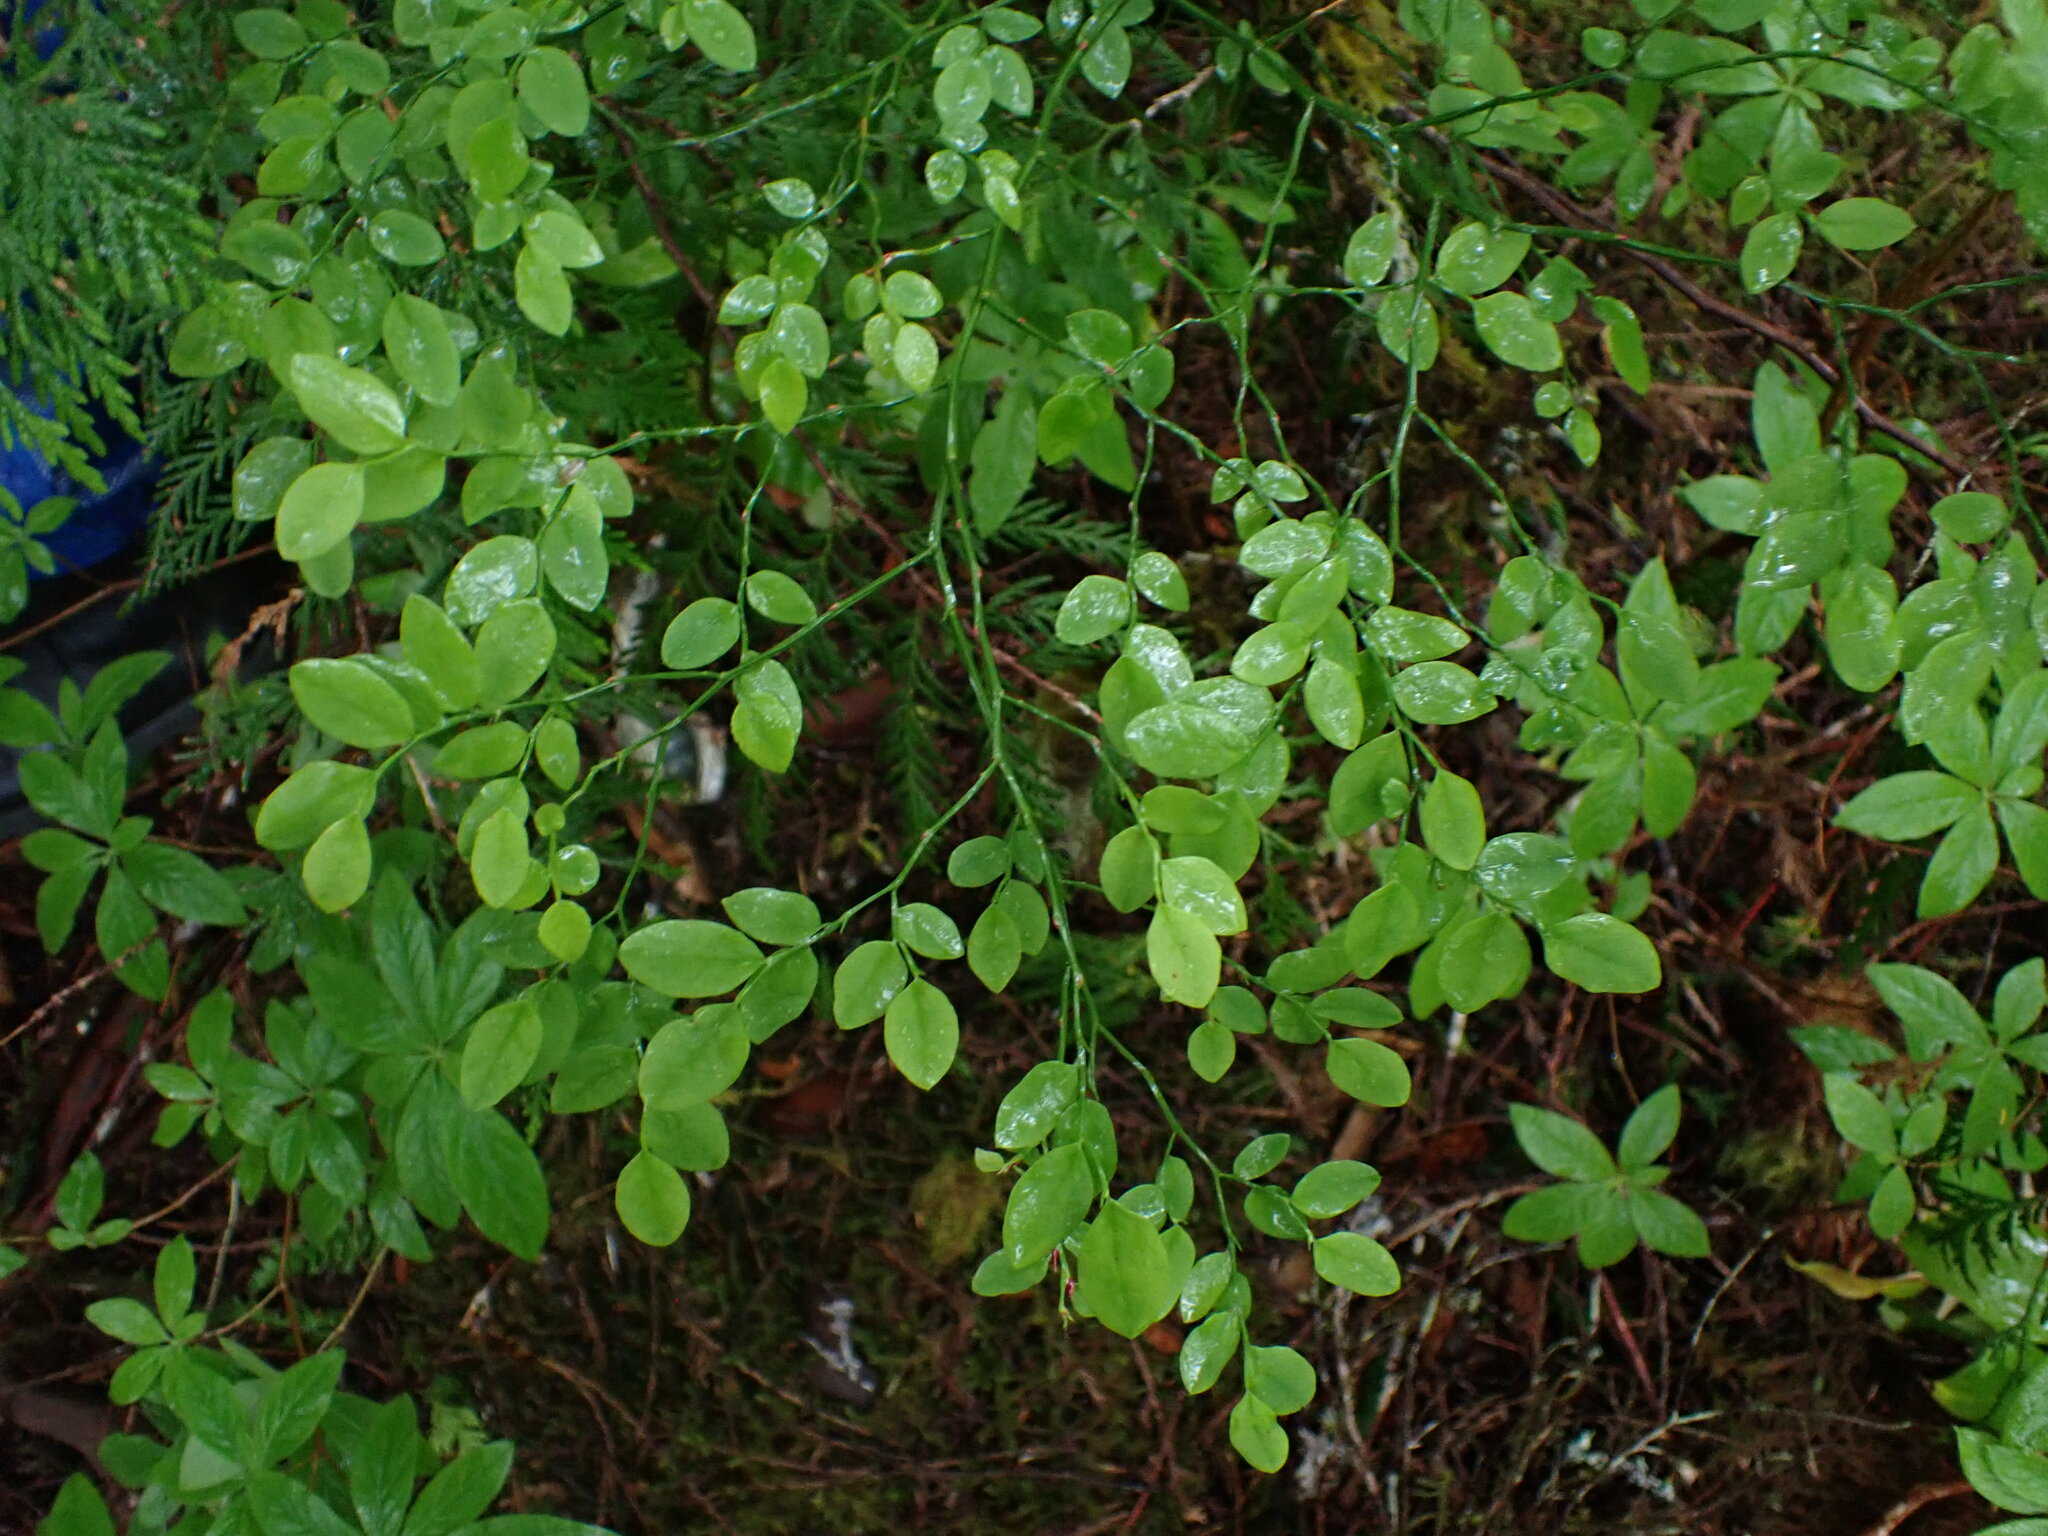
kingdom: Plantae
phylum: Tracheophyta
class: Magnoliopsida
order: Ericales
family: Ericaceae
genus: Vaccinium
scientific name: Vaccinium parvifolium
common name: Red-huckleberry
